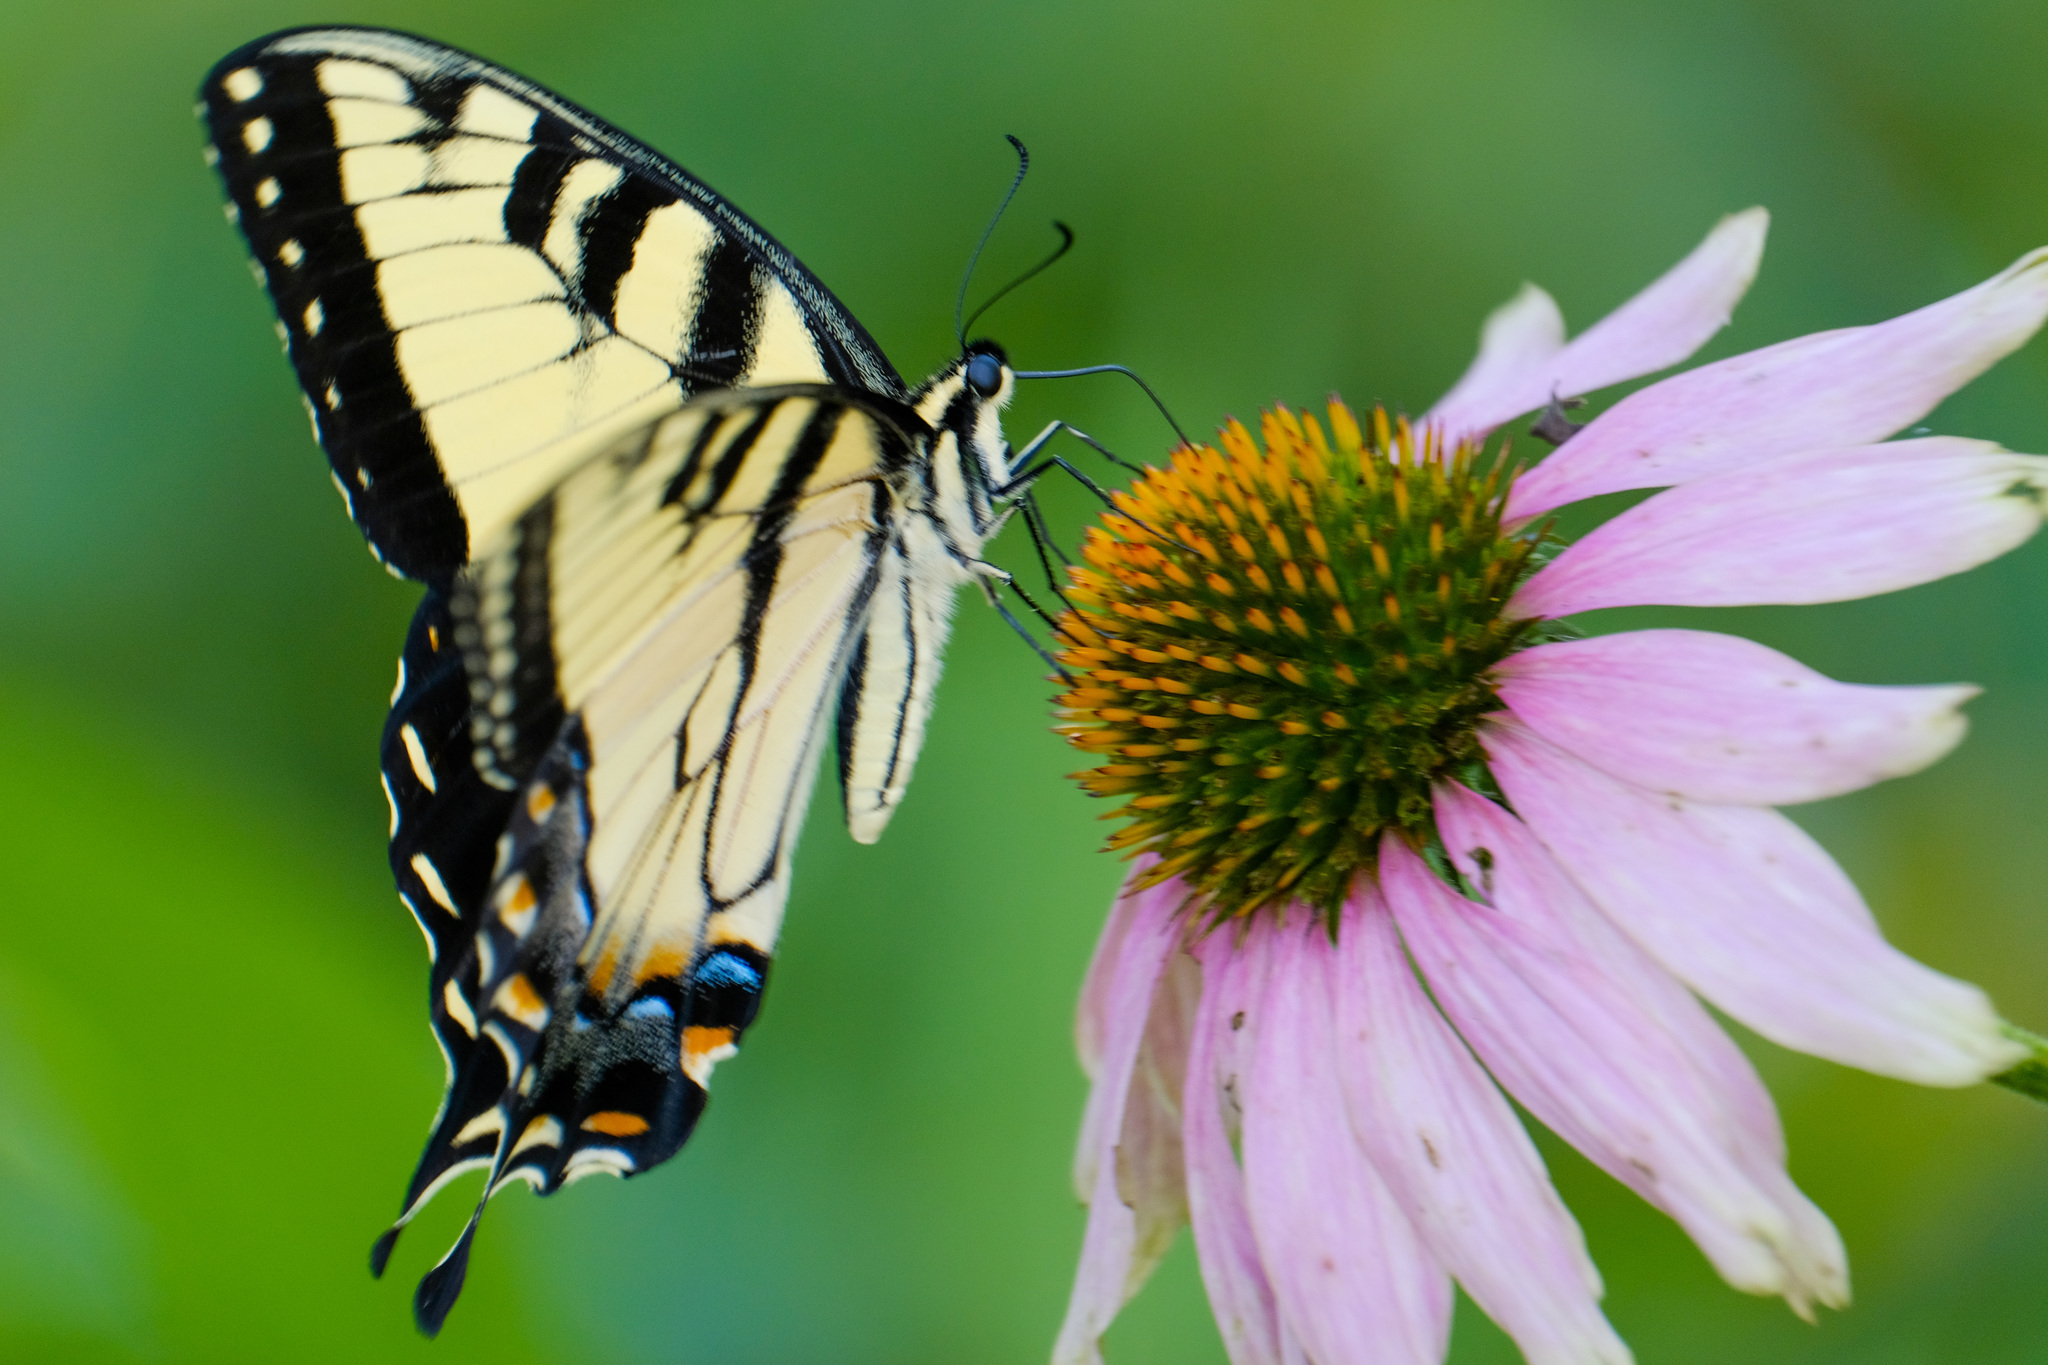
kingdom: Animalia
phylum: Arthropoda
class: Insecta
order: Lepidoptera
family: Papilionidae
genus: Papilio
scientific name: Papilio glaucus
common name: Tiger swallowtail
